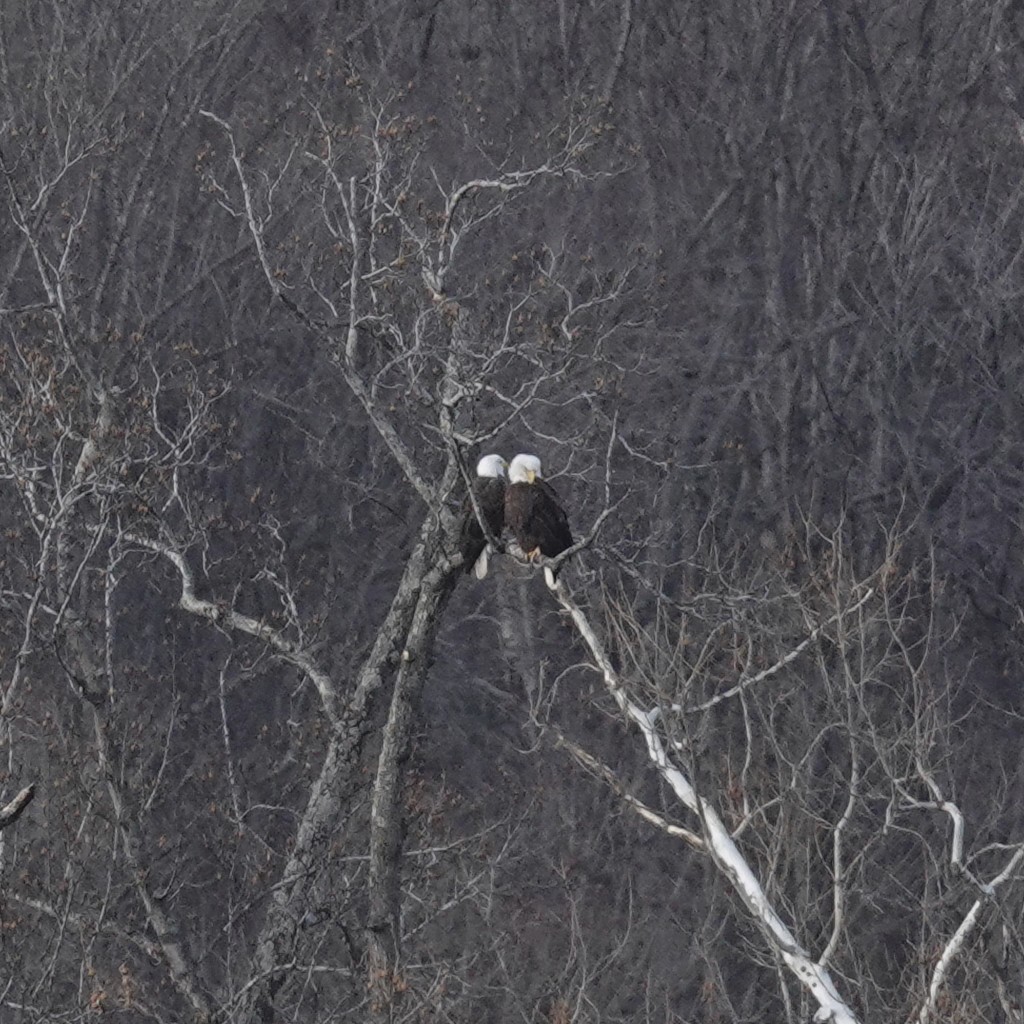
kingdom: Animalia
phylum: Chordata
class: Aves
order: Accipitriformes
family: Accipitridae
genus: Haliaeetus
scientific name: Haliaeetus leucocephalus
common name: Bald eagle
